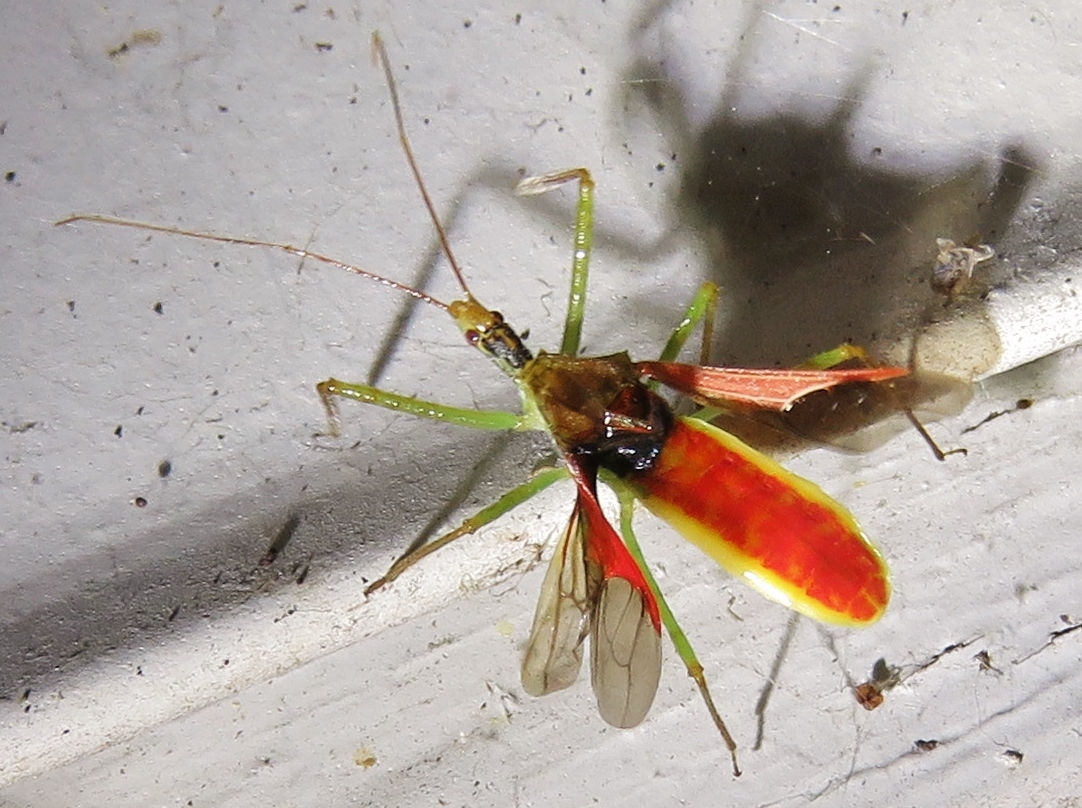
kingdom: Animalia
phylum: Arthropoda
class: Insecta
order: Hemiptera
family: Reduviidae
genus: Zelus
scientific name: Zelus renardii
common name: Assassin bug
